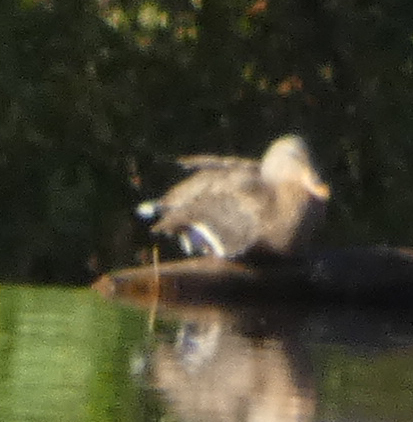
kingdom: Animalia
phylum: Chordata
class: Aves
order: Anseriformes
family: Anatidae
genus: Anas
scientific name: Anas platyrhynchos
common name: Mallard
